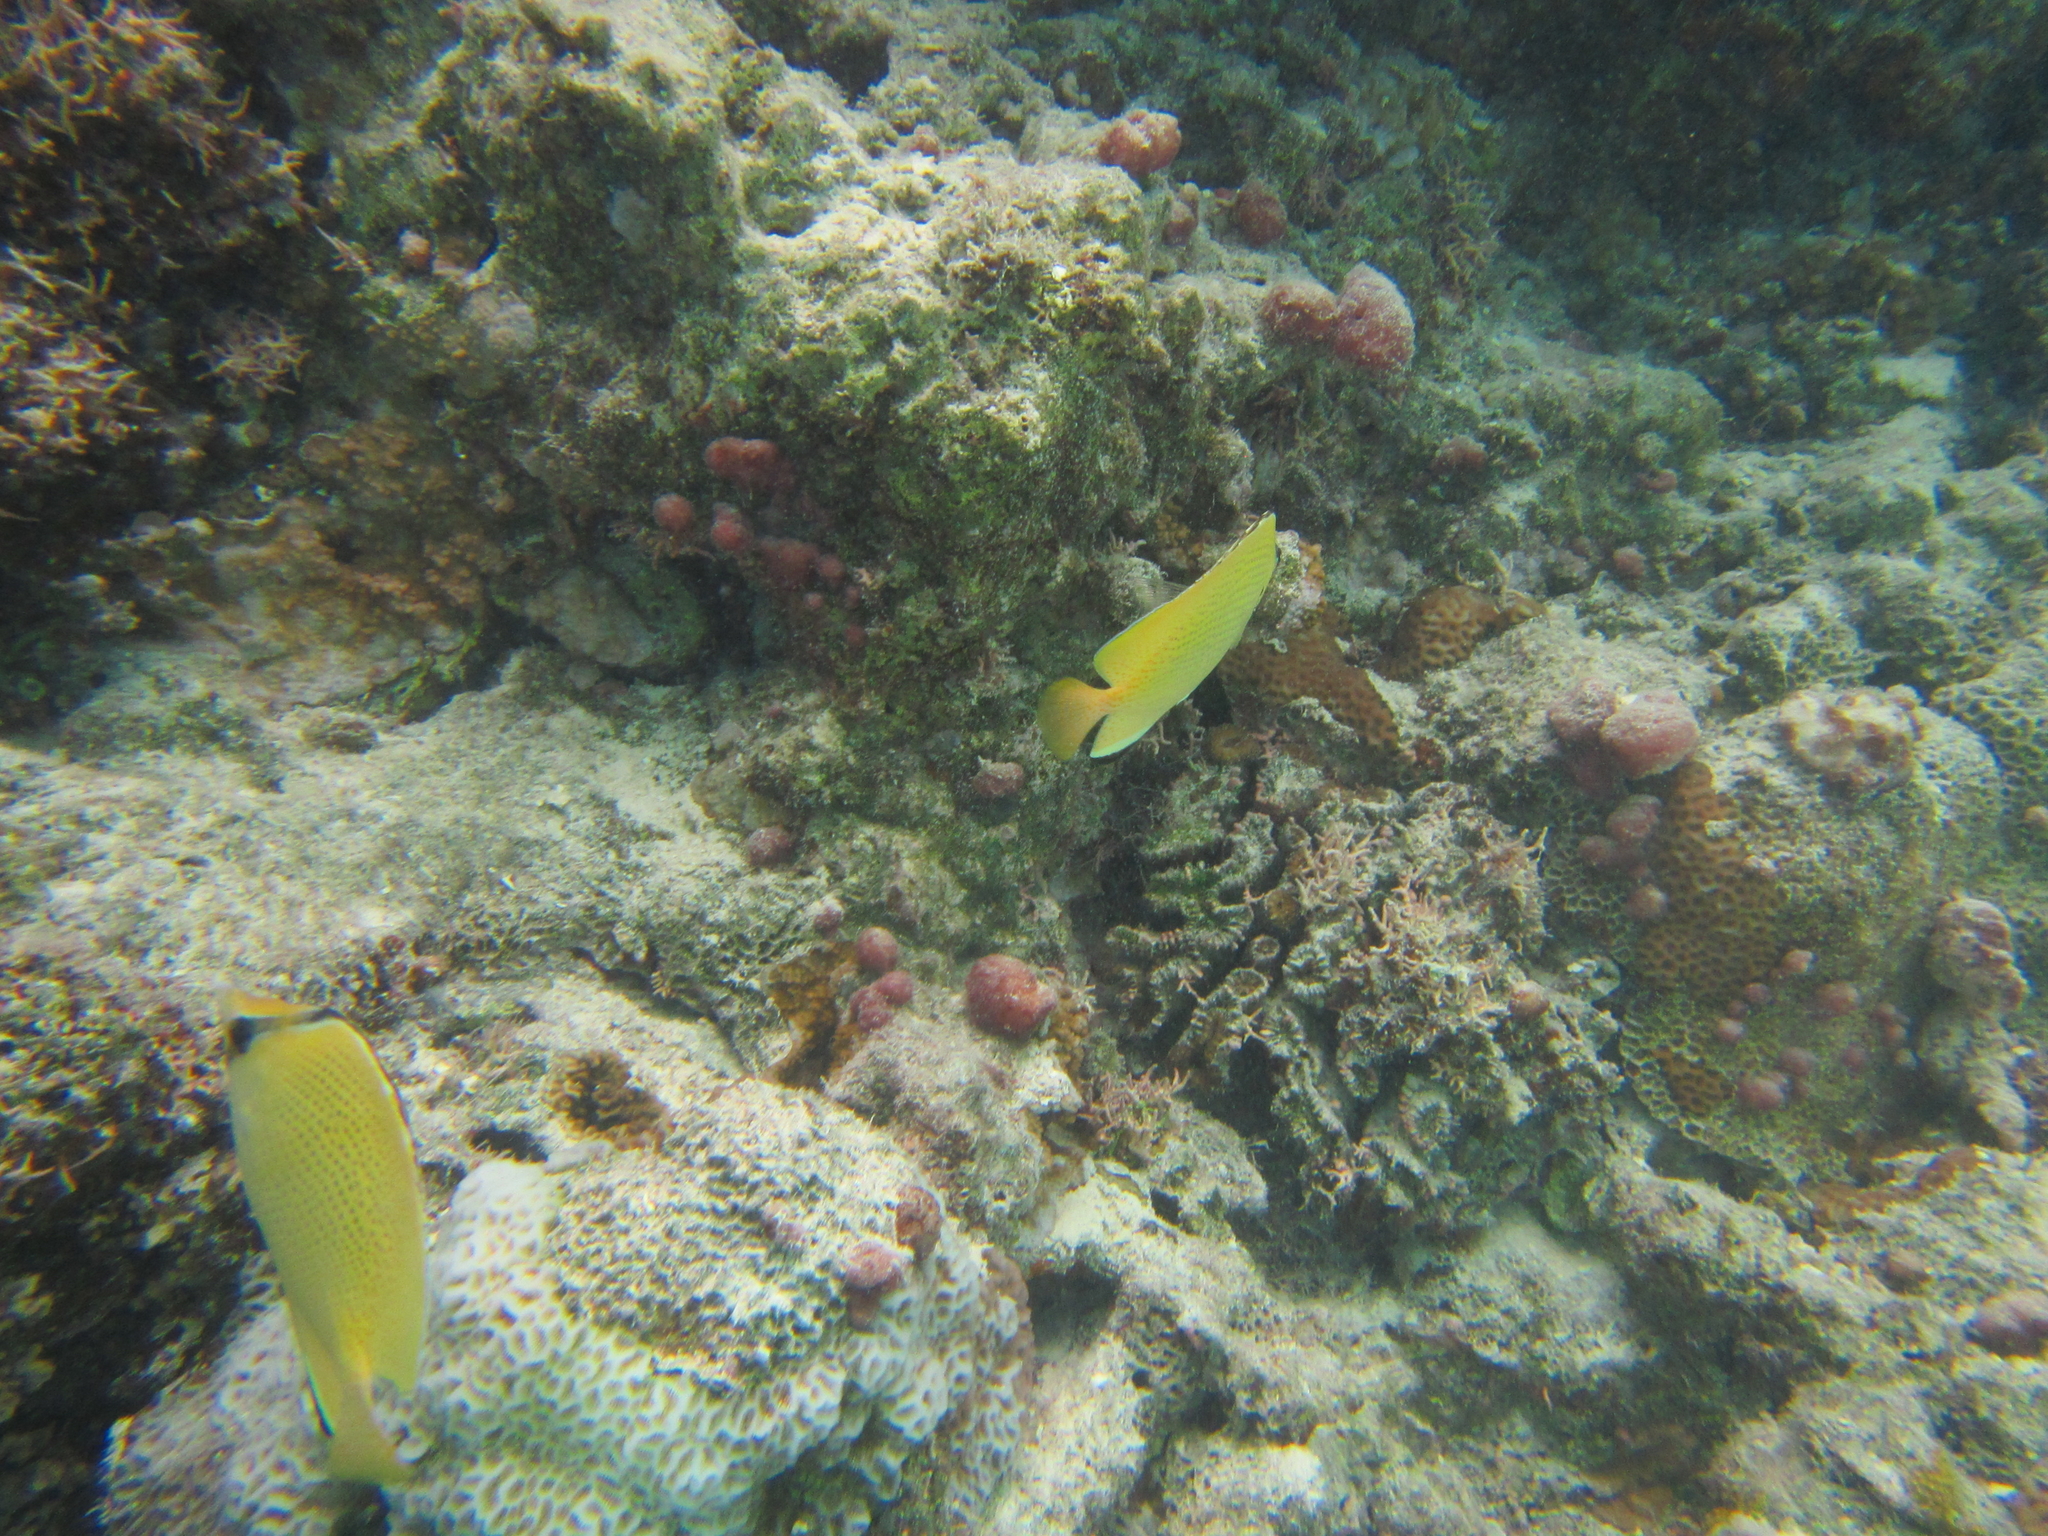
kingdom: Animalia
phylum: Chordata
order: Perciformes
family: Chaetodontidae
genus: Chaetodon
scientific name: Chaetodon citrinellus
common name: Speckled butterflyfish
